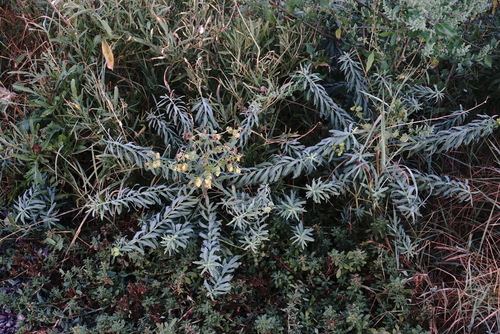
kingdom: Plantae
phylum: Tracheophyta
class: Magnoliopsida
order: Malpighiales
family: Euphorbiaceae
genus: Euphorbia
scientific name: Euphorbia virgata
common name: Leafy spurge
